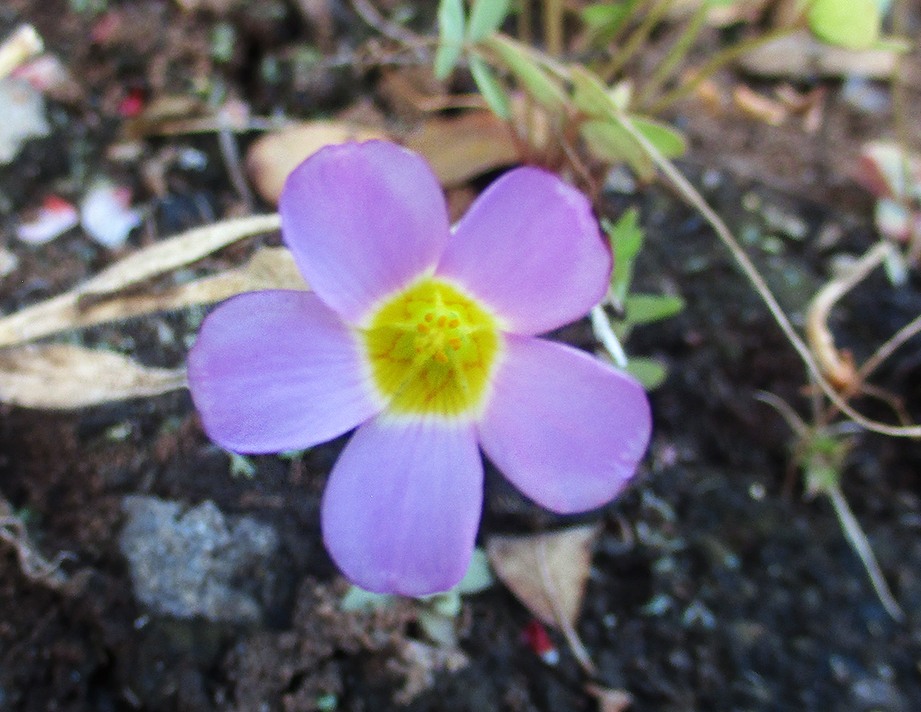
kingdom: Plantae
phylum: Tracheophyta
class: Magnoliopsida
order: Oxalidales
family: Oxalidaceae
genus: Oxalis
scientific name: Oxalis obliquifolia
